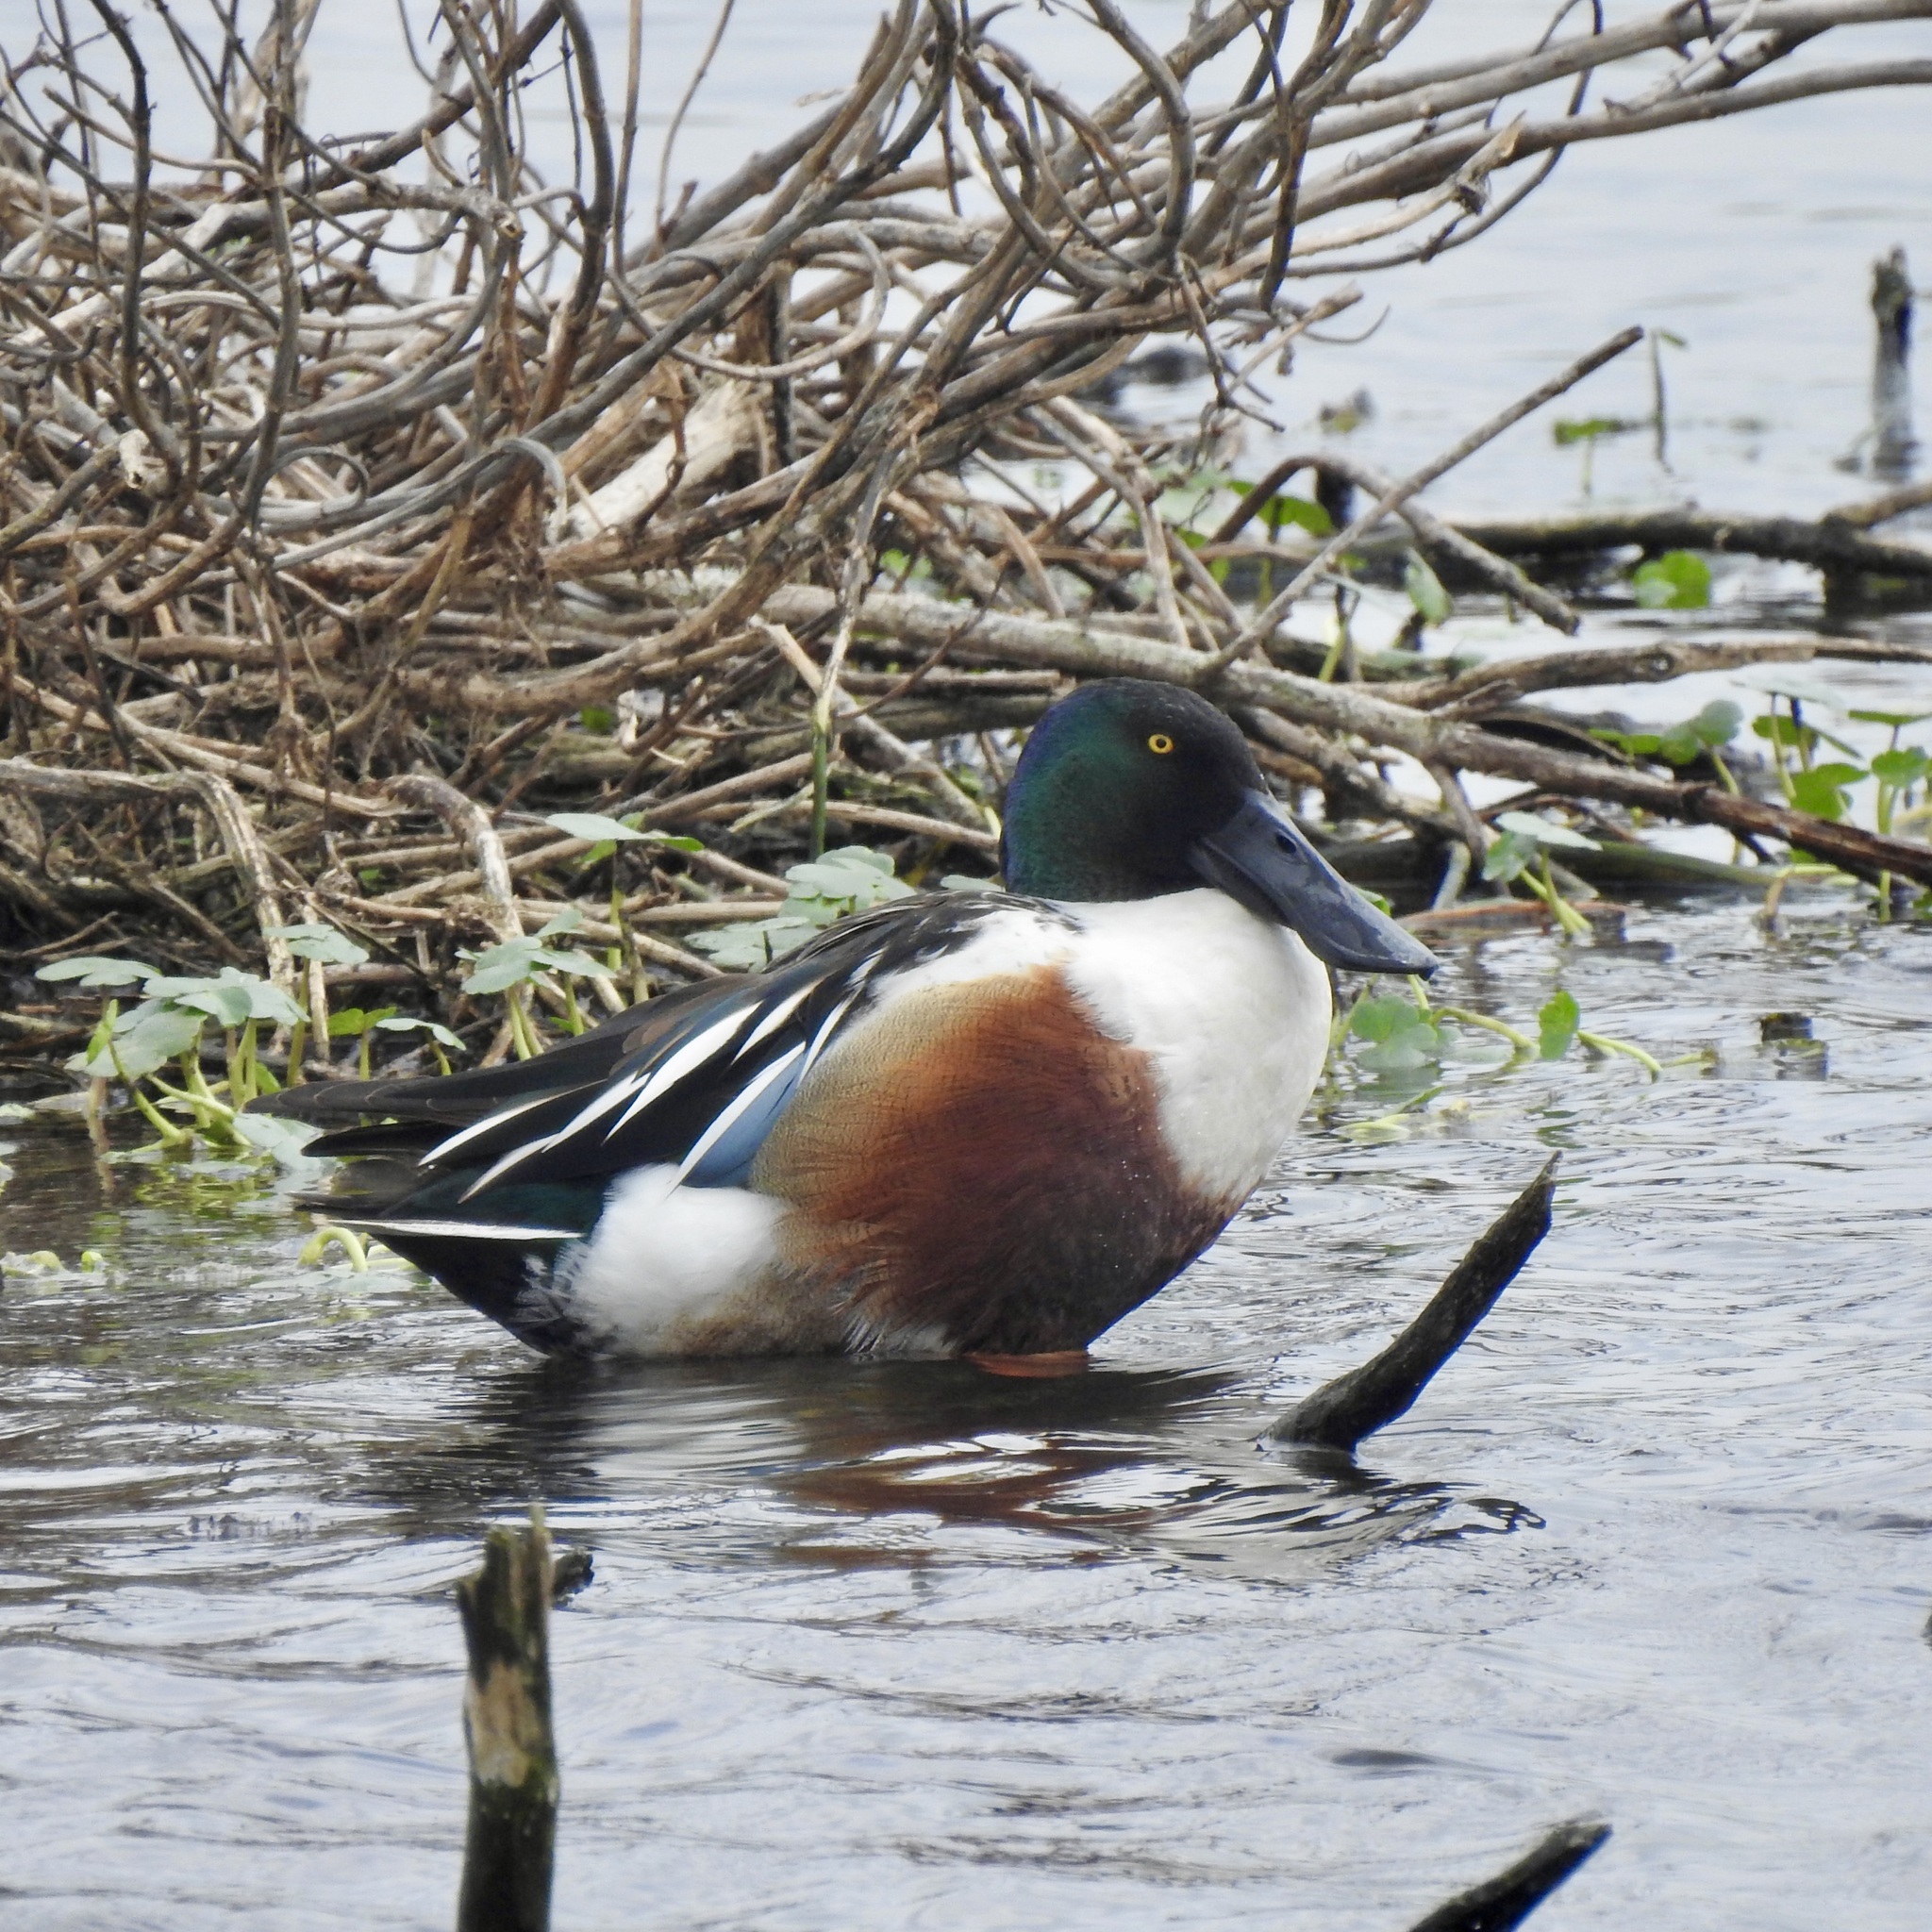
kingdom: Animalia
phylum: Chordata
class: Aves
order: Anseriformes
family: Anatidae
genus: Spatula
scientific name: Spatula clypeata
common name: Northern shoveler
